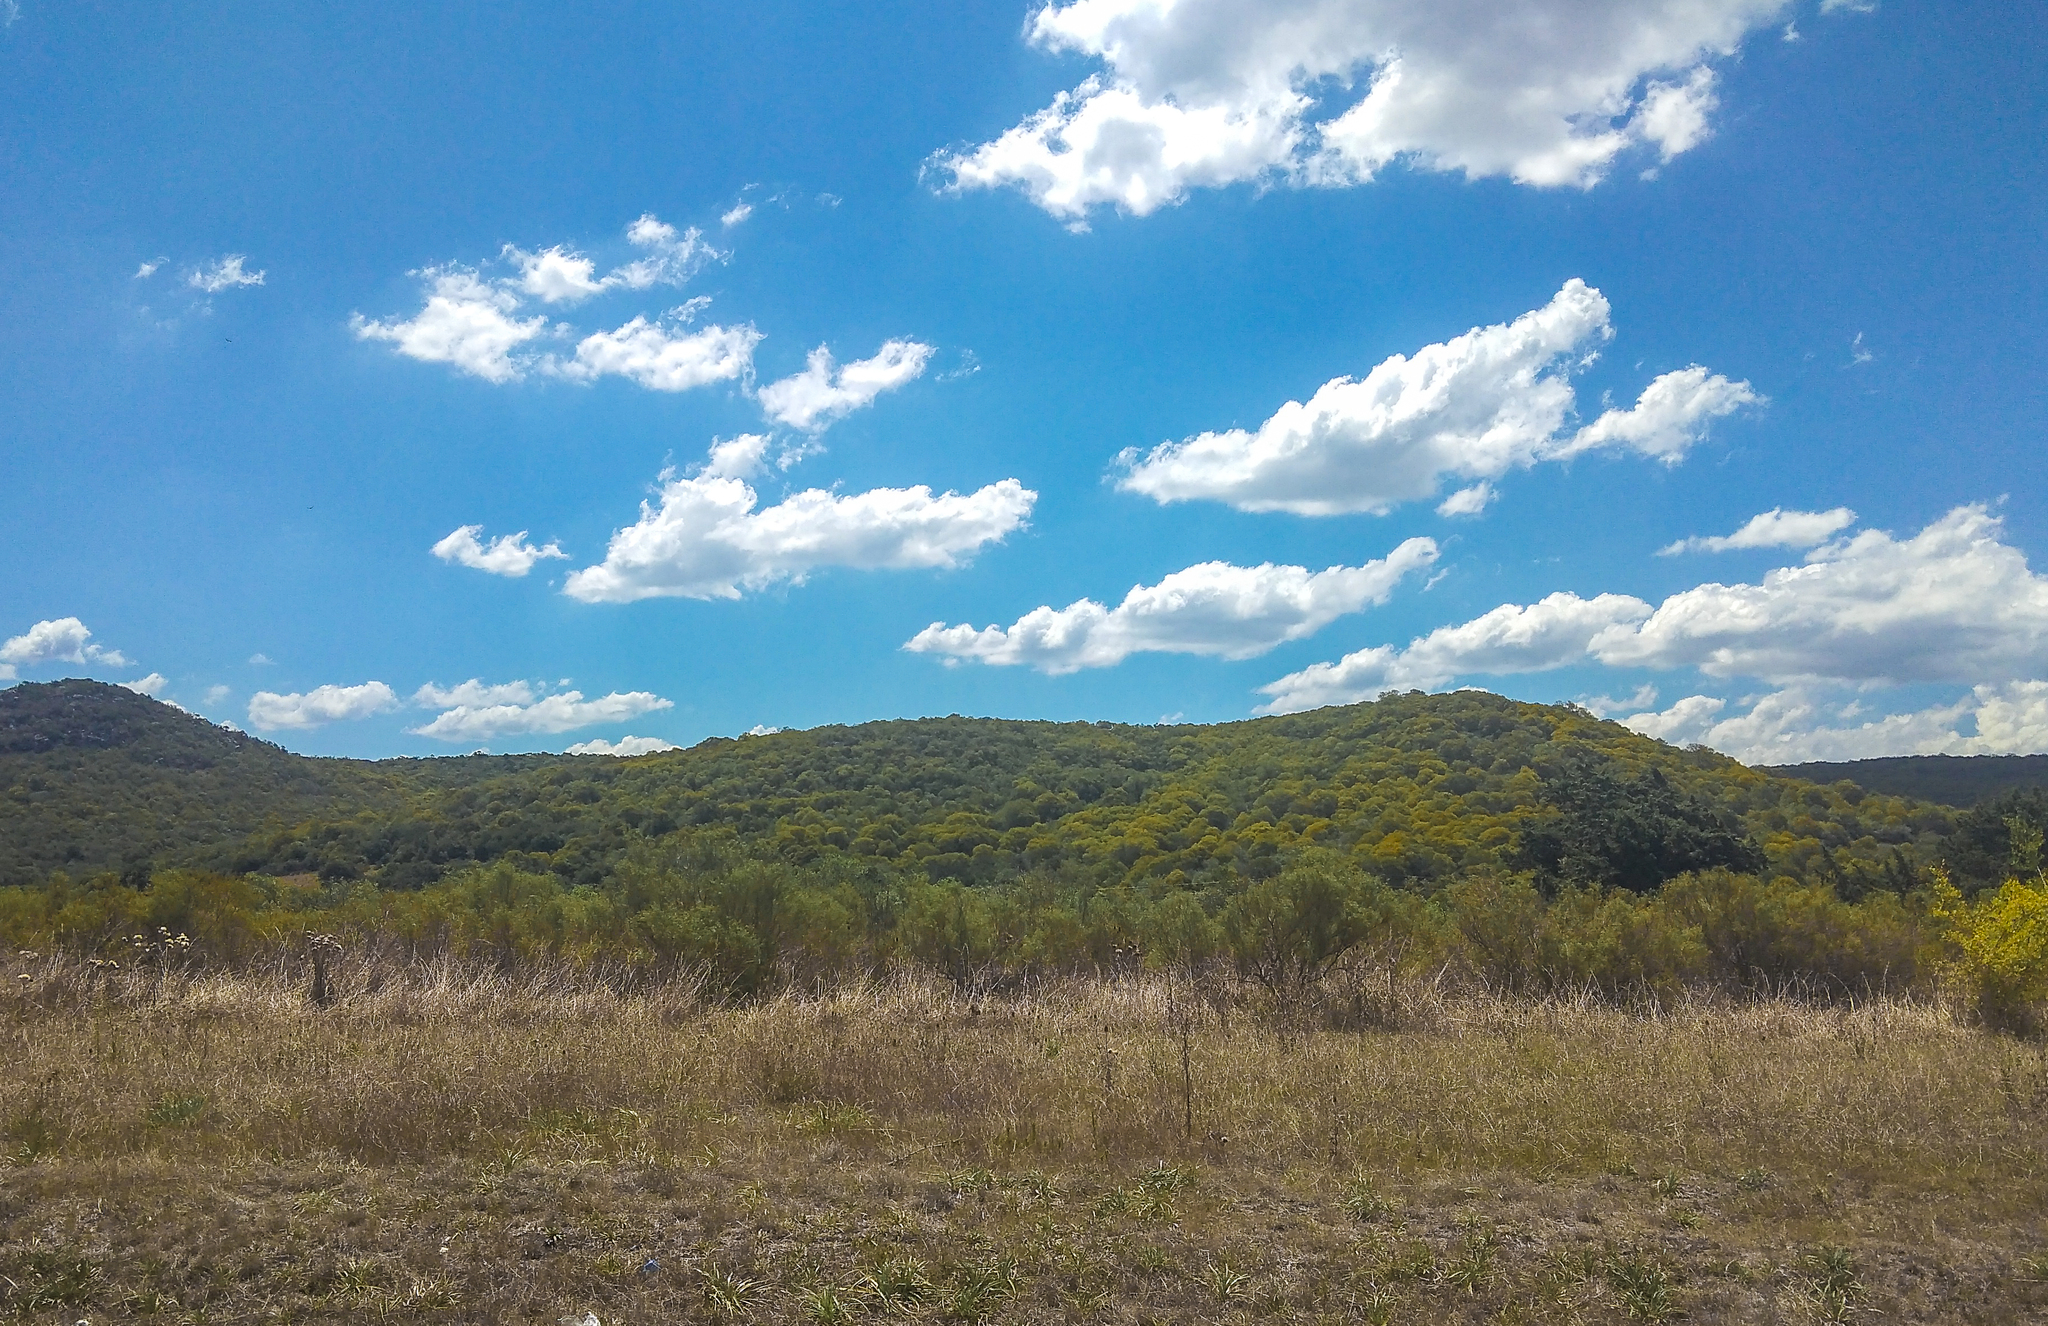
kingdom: Plantae
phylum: Tracheophyta
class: Magnoliopsida
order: Lamiales
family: Oleaceae
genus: Ligustrum
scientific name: Ligustrum lucidum
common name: Glossy privet
